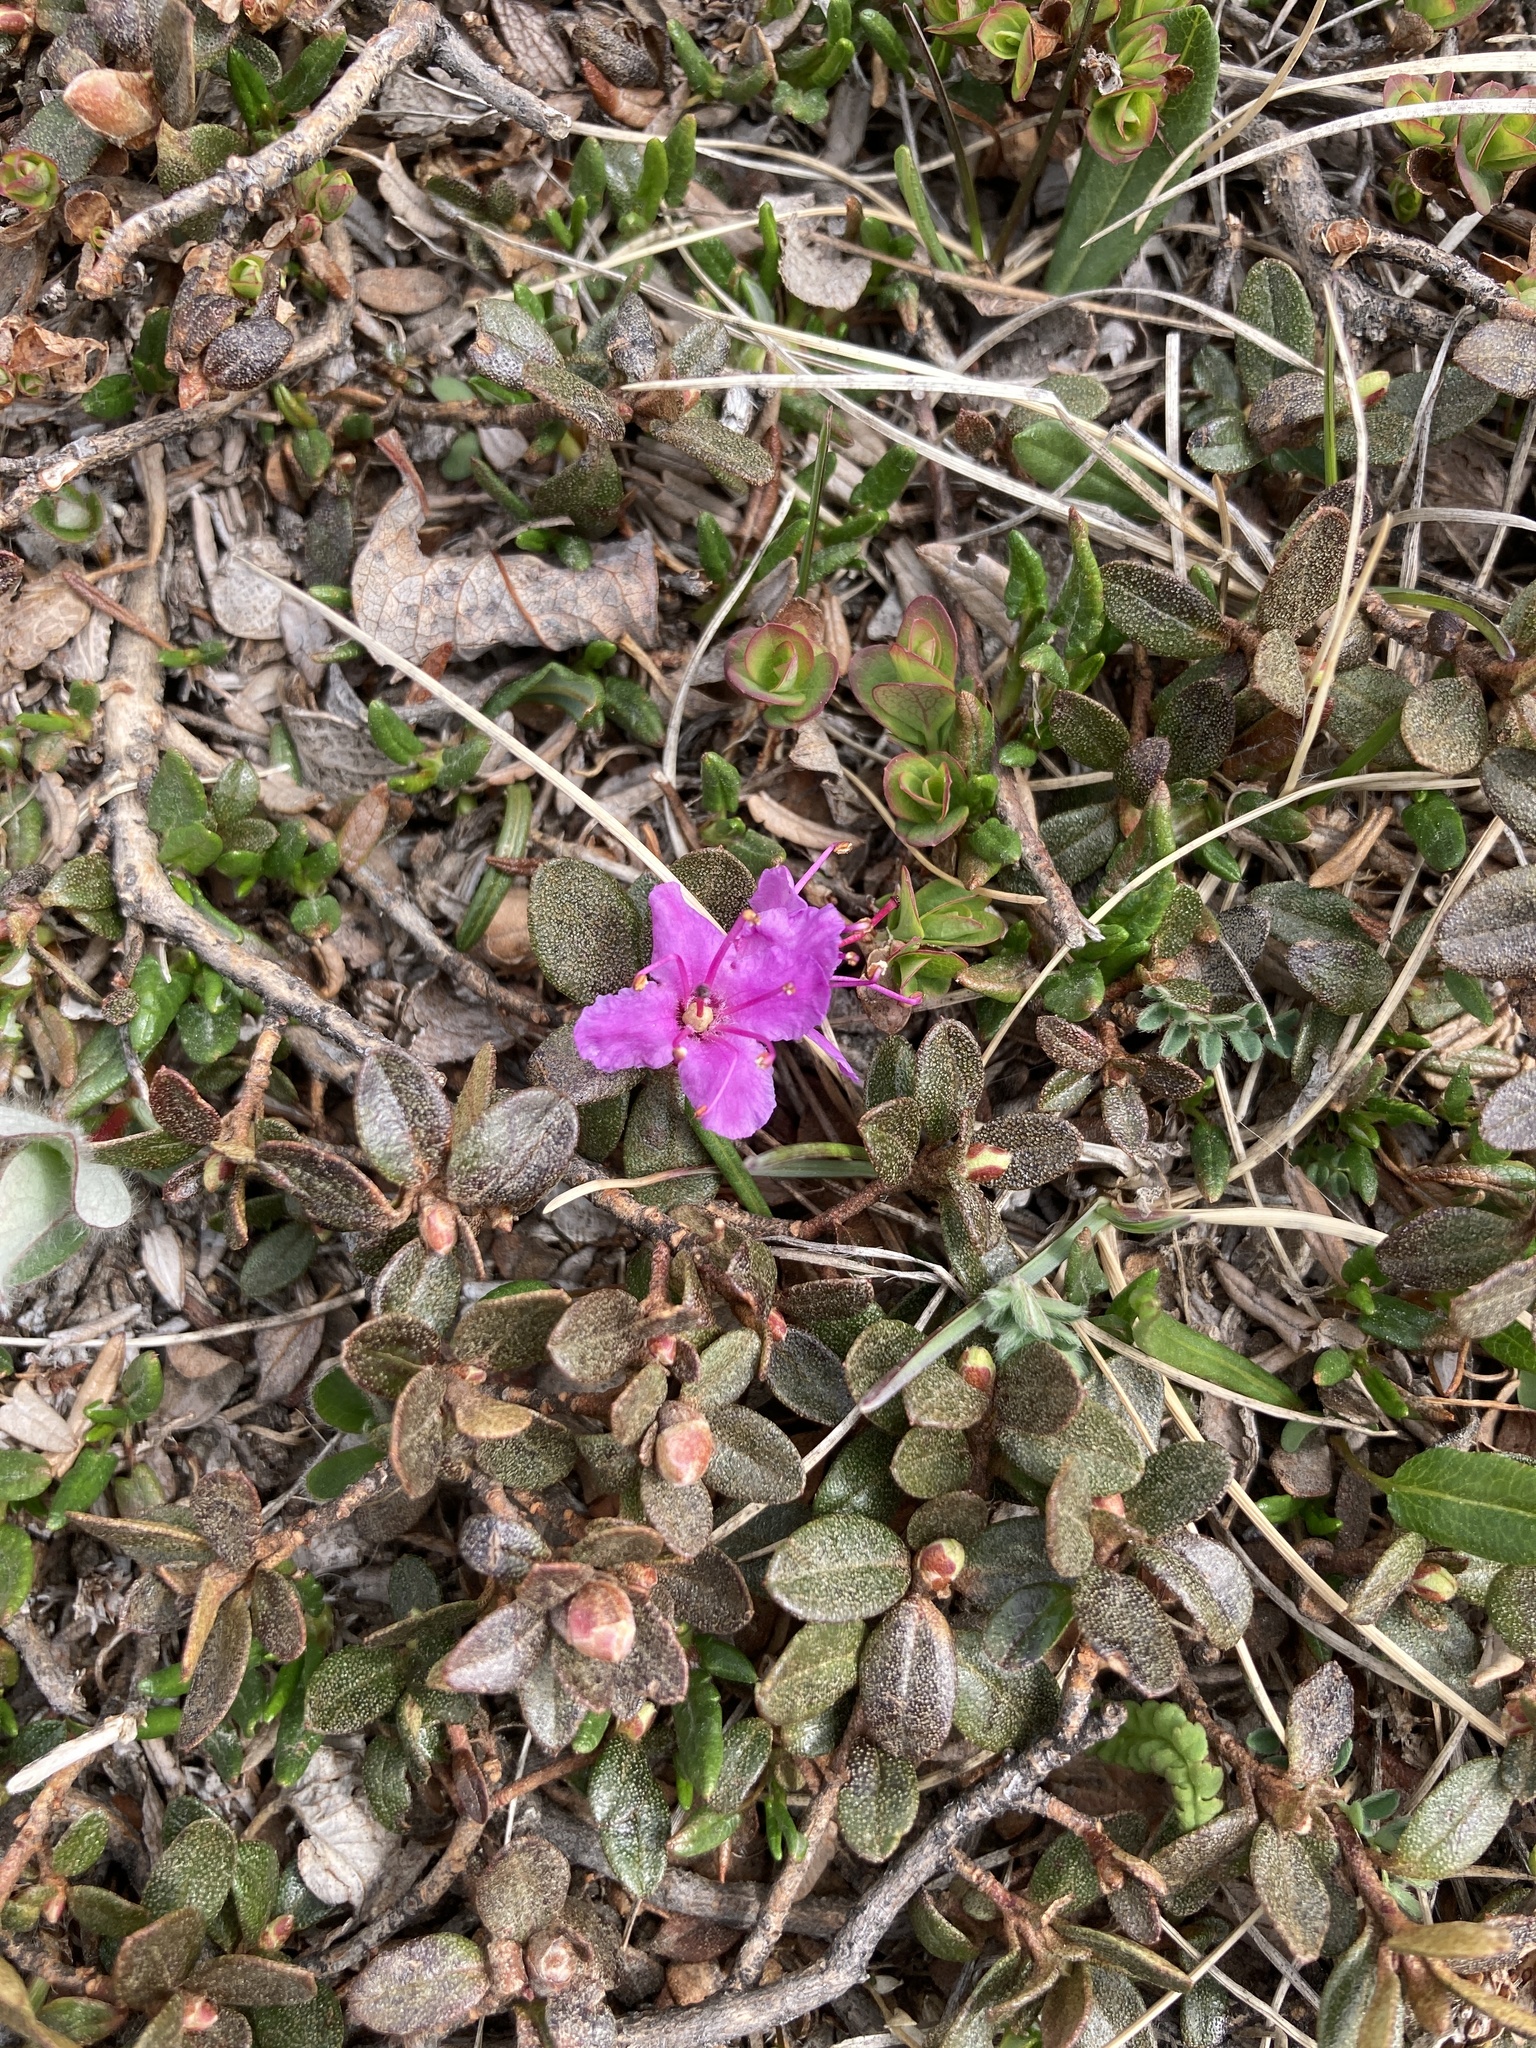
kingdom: Plantae
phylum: Tracheophyta
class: Magnoliopsida
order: Ericales
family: Ericaceae
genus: Rhododendron
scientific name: Rhododendron lapponicum
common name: Lapland rhododendron
